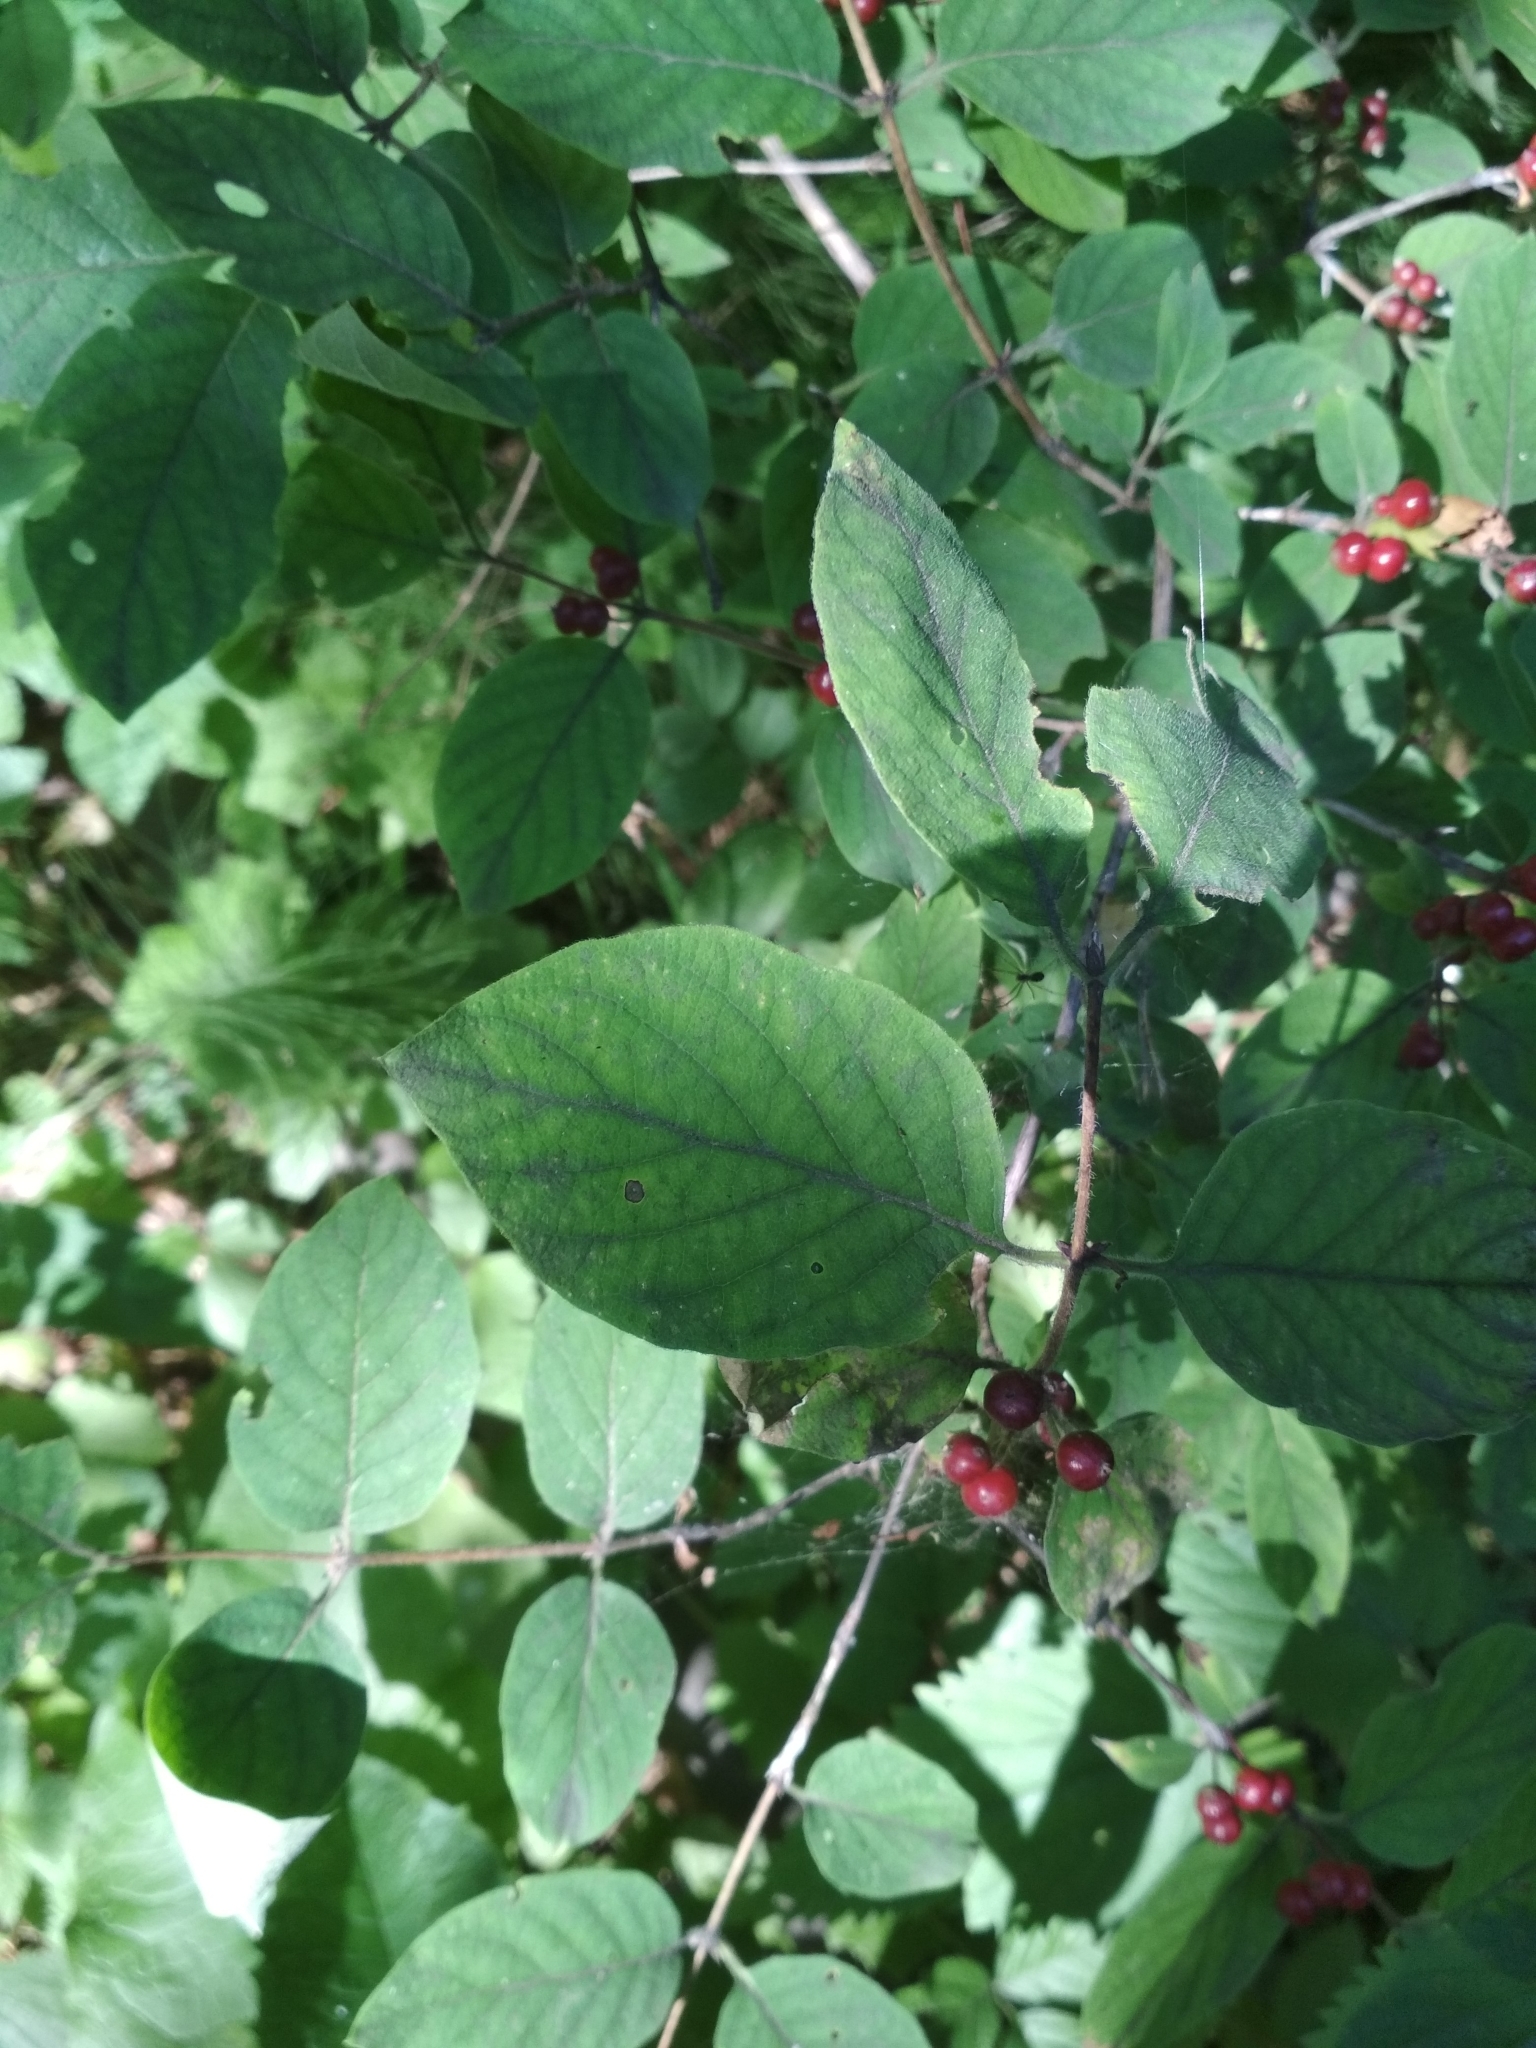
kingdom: Plantae
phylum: Tracheophyta
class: Magnoliopsida
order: Dipsacales
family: Caprifoliaceae
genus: Lonicera
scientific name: Lonicera xylosteum
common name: Fly honeysuckle
